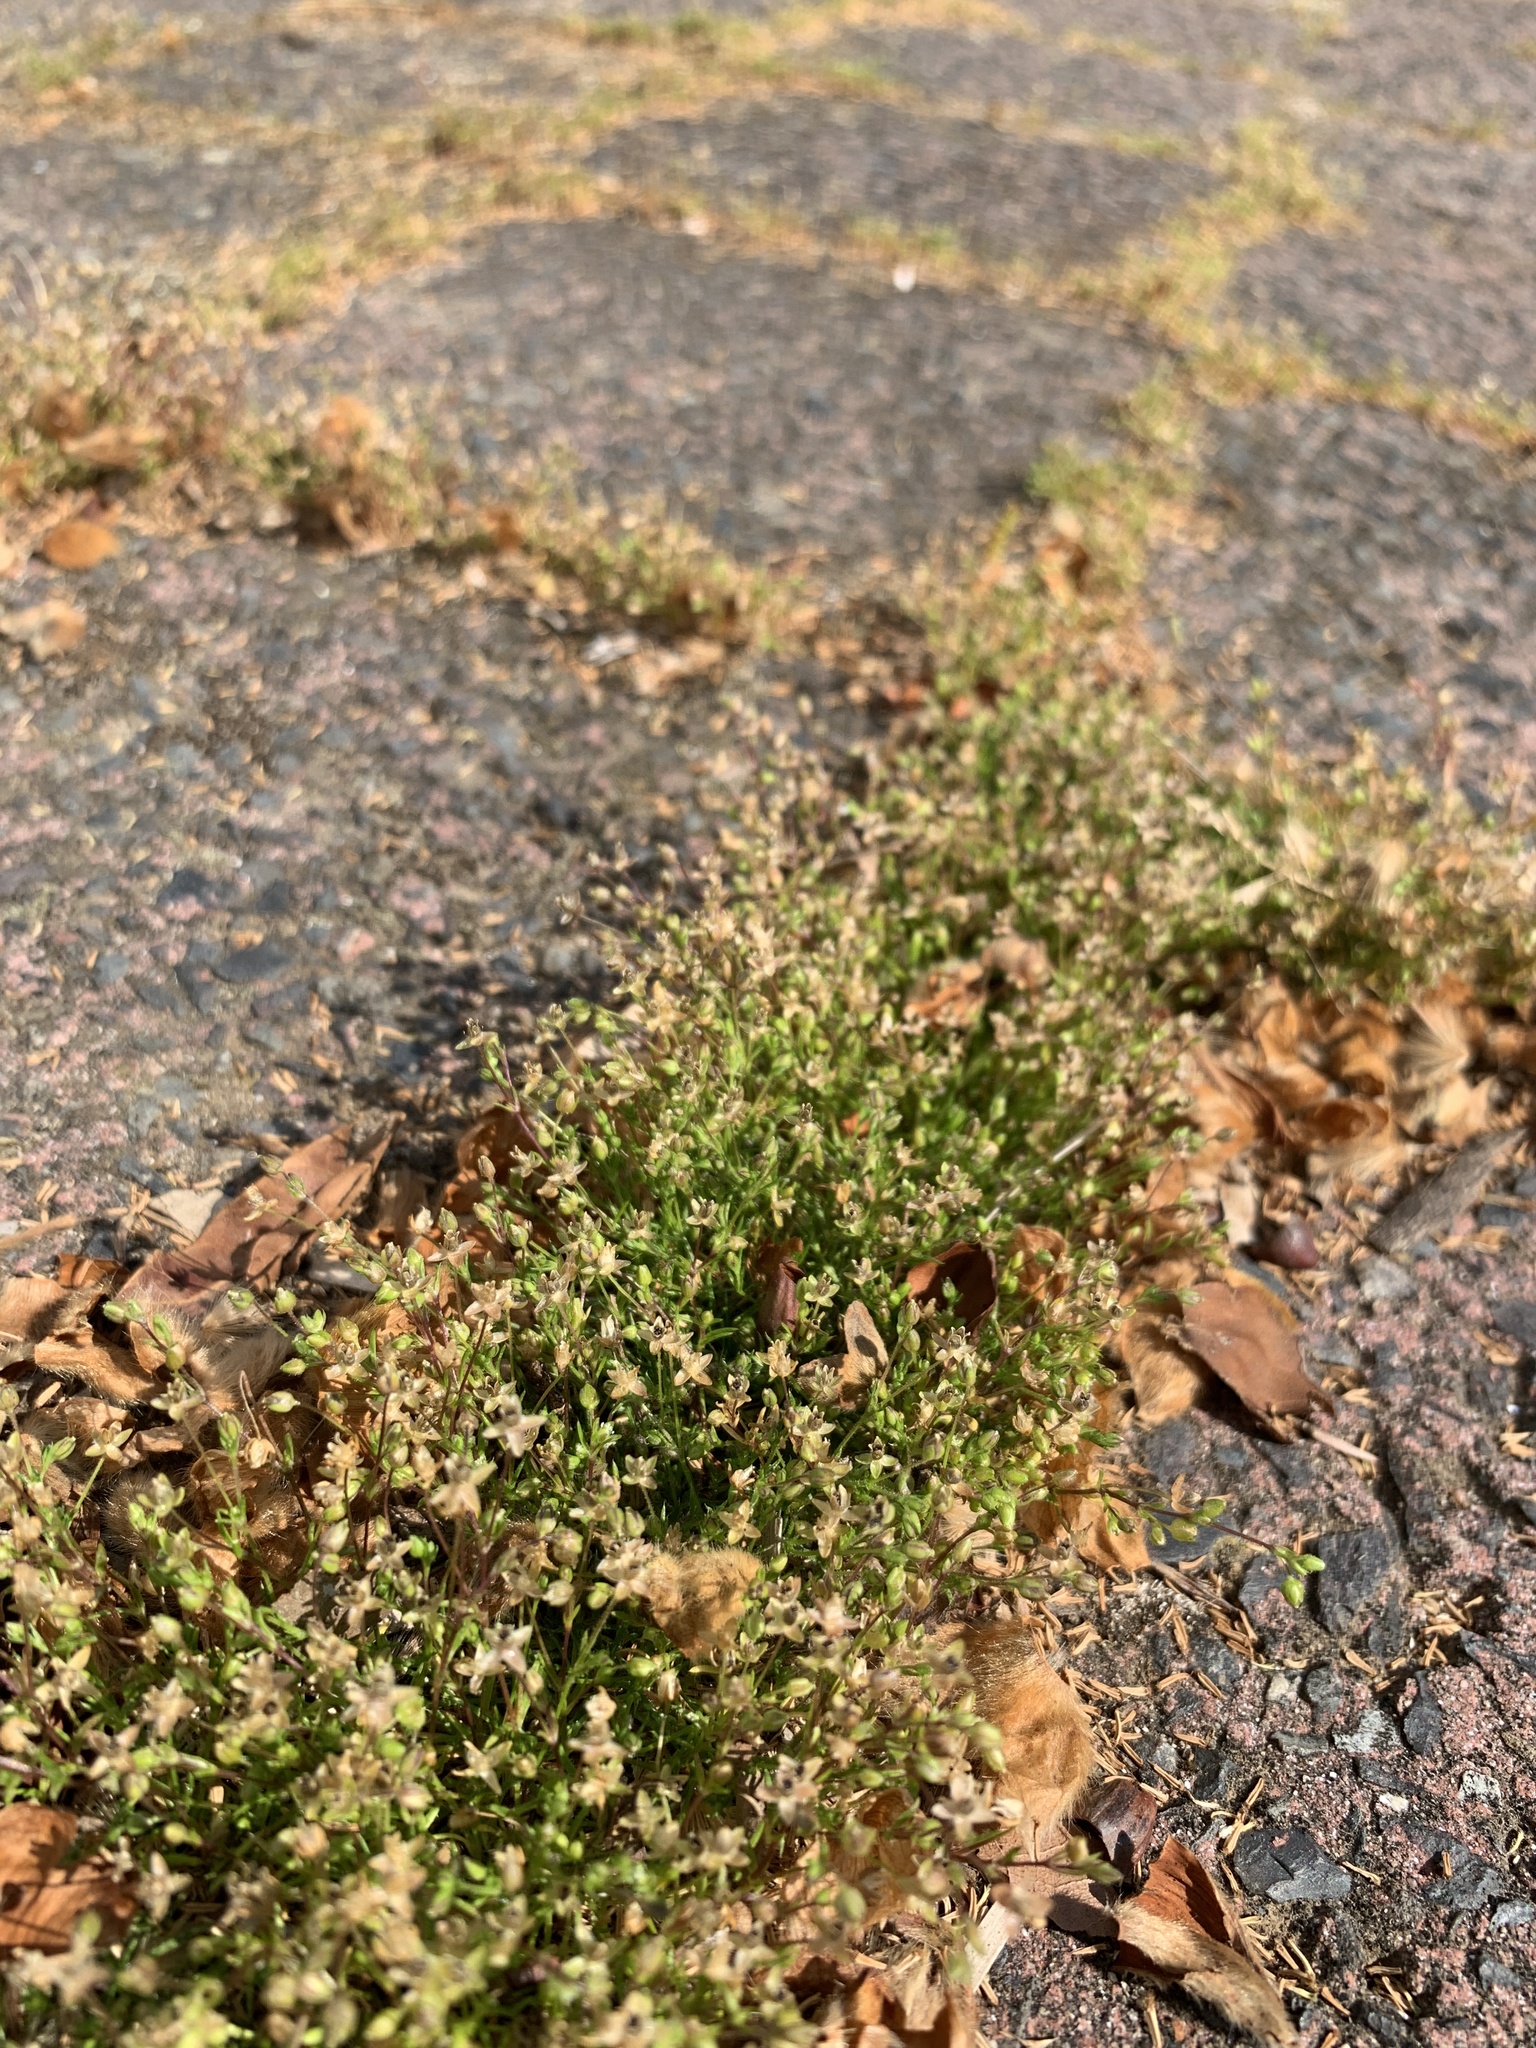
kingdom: Plantae
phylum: Tracheophyta
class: Magnoliopsida
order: Caryophyllales
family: Caryophyllaceae
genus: Sagina
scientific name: Sagina micropetala
